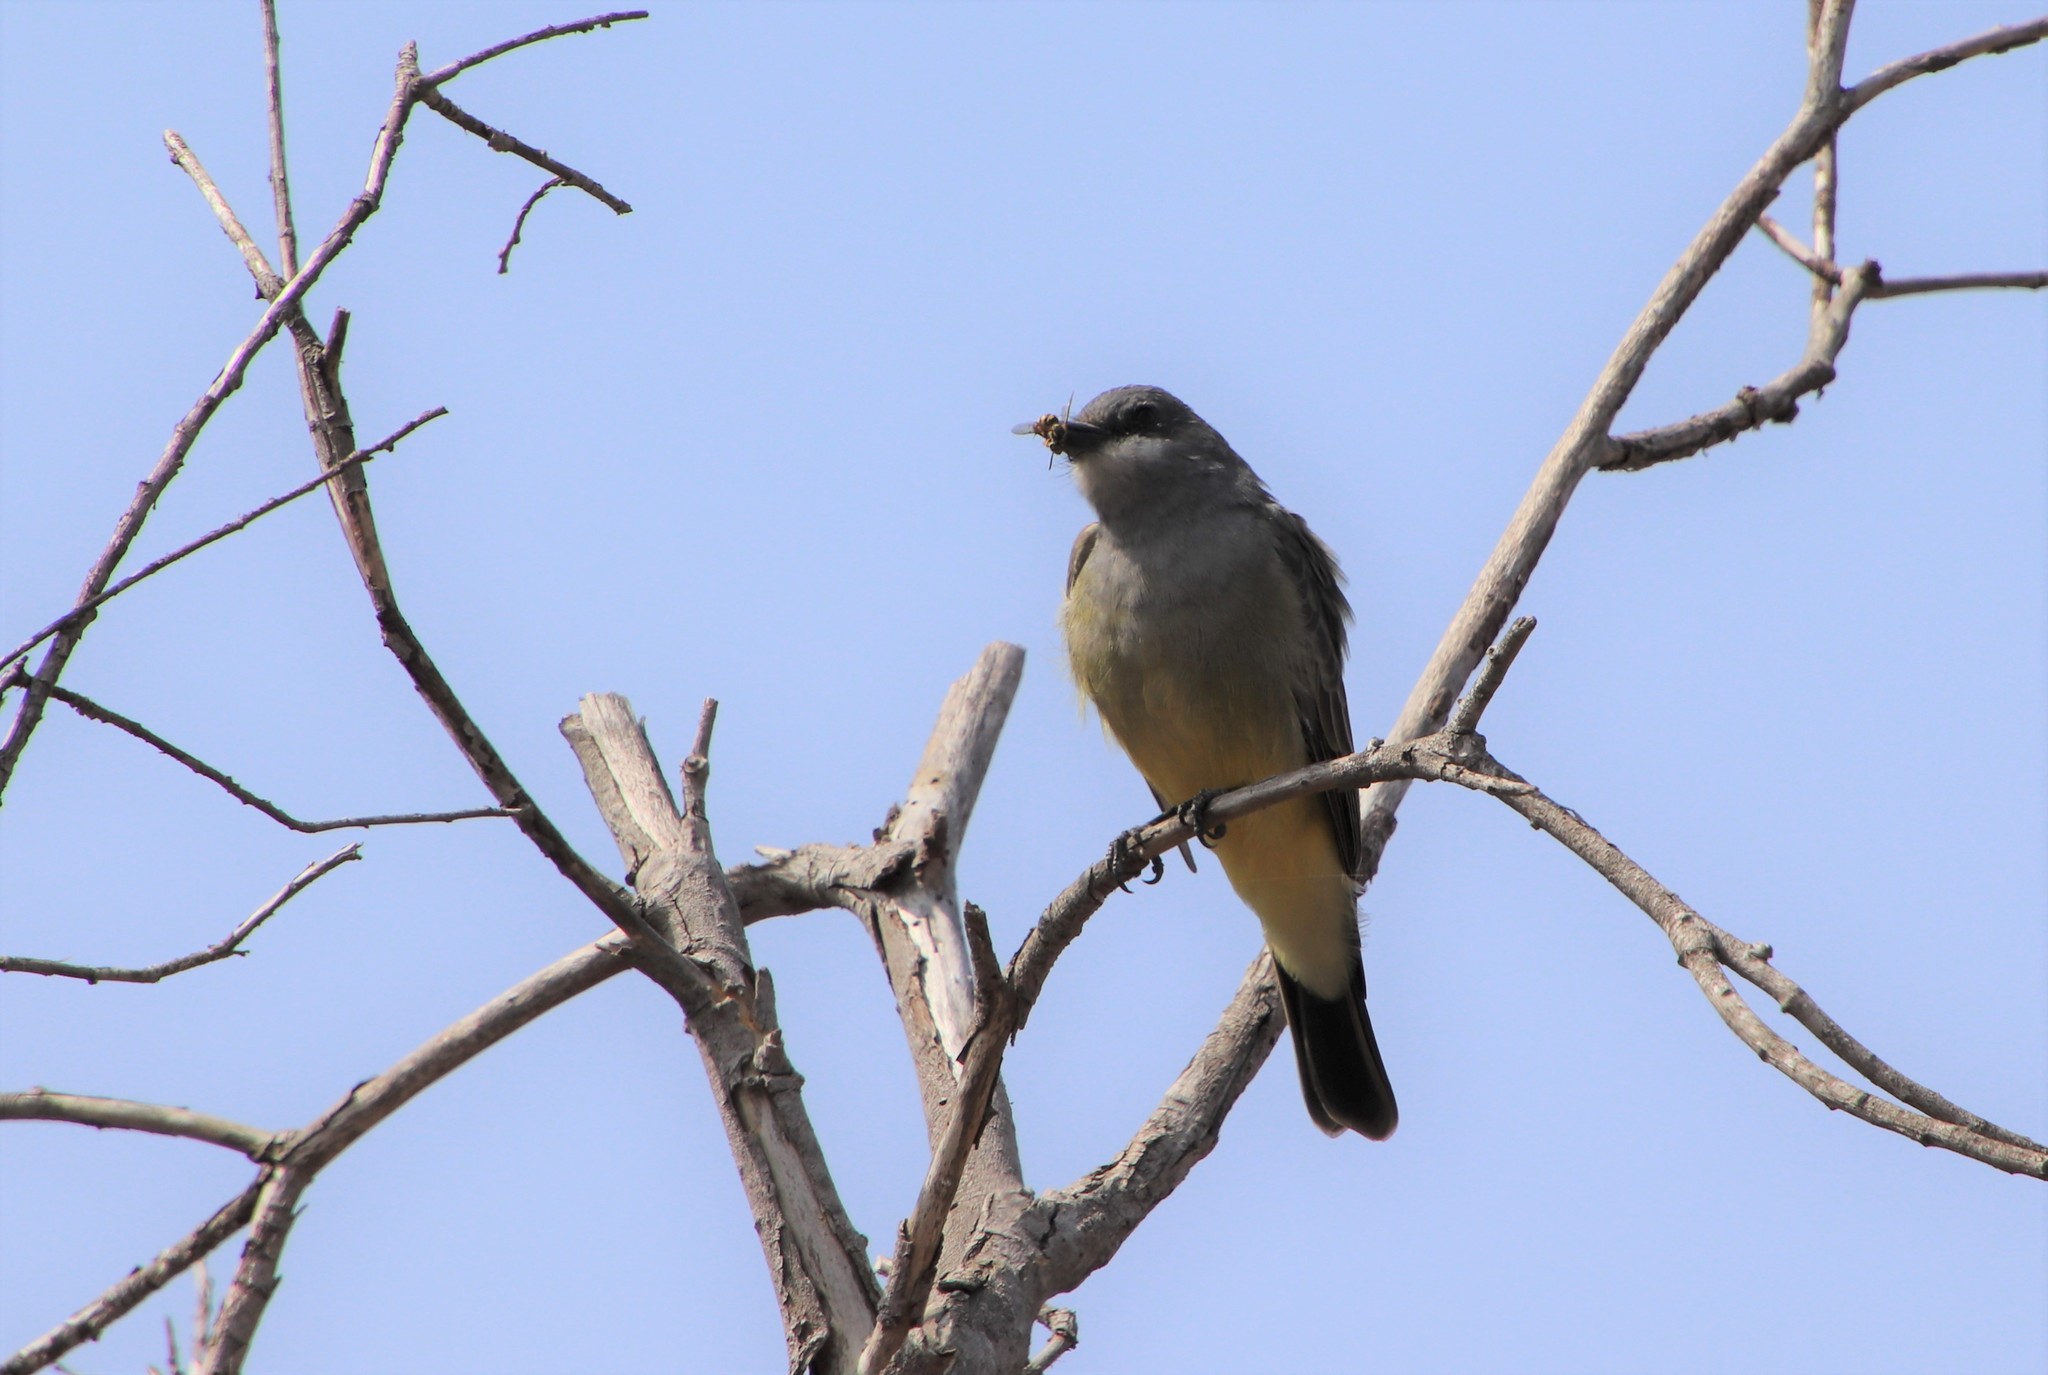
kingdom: Animalia
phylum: Chordata
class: Aves
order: Passeriformes
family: Tyrannidae
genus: Tyrannus
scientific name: Tyrannus vociferans
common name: Cassin's kingbird
